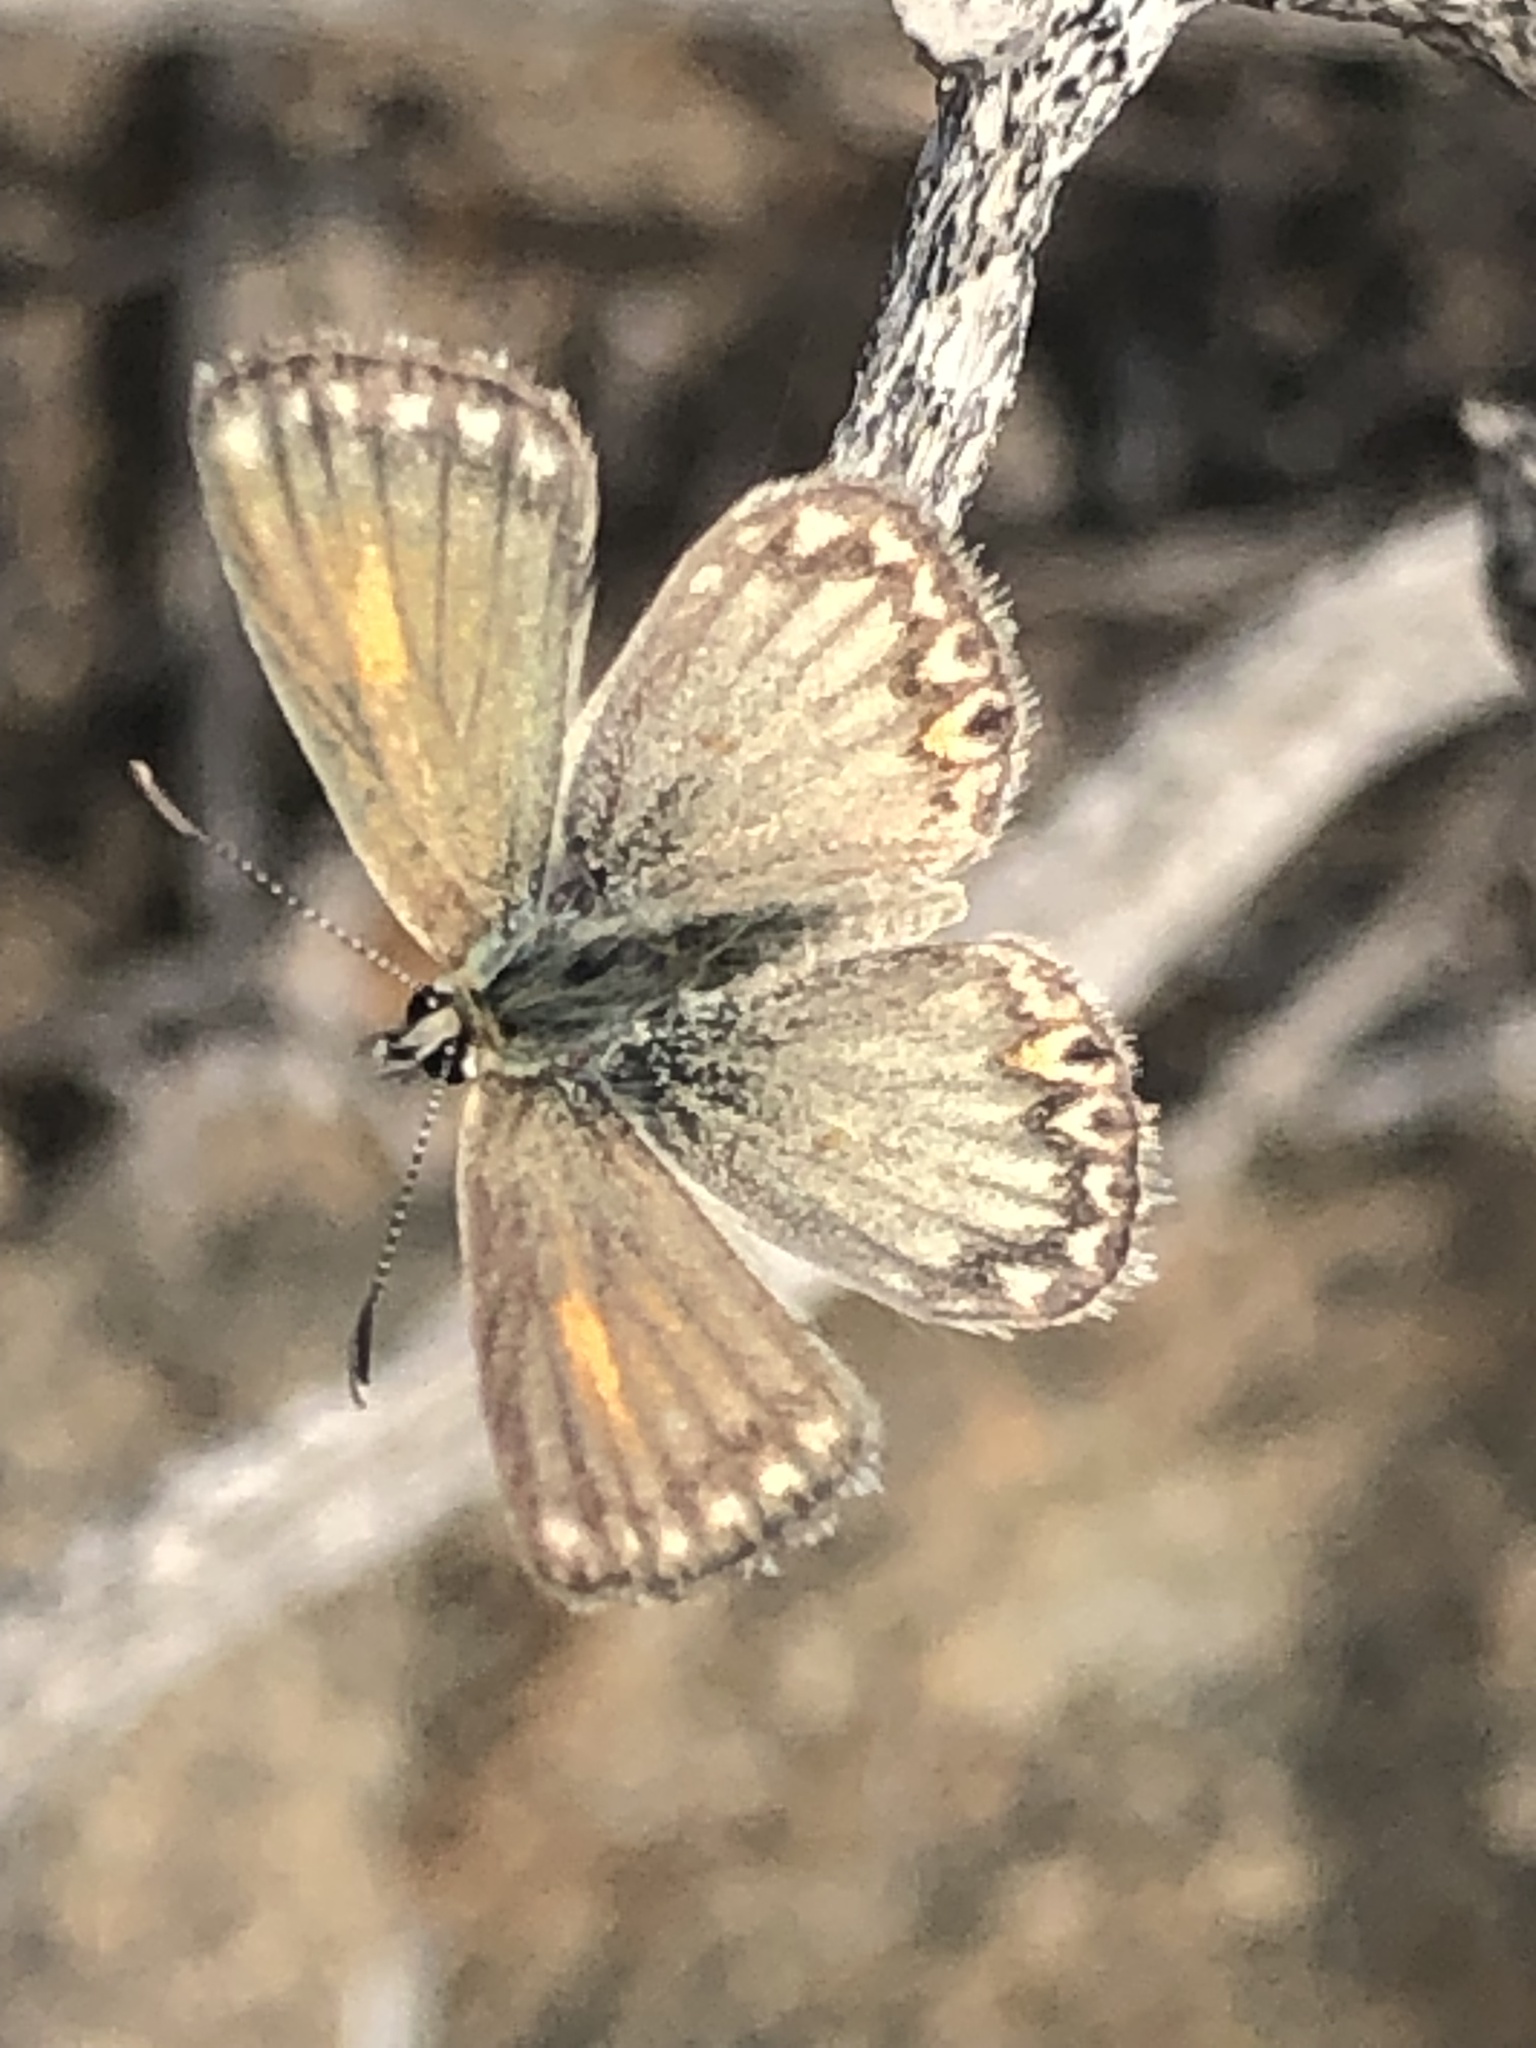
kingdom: Animalia
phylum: Arthropoda
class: Insecta
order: Lepidoptera
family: Lycaenidae
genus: Pseudolucia
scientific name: Pseudolucia chilensis
